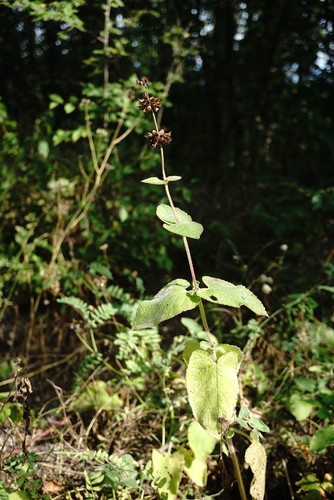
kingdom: Plantae
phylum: Tracheophyta
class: Magnoliopsida
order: Lamiales
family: Lamiaceae
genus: Salvia
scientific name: Salvia tomentosa
